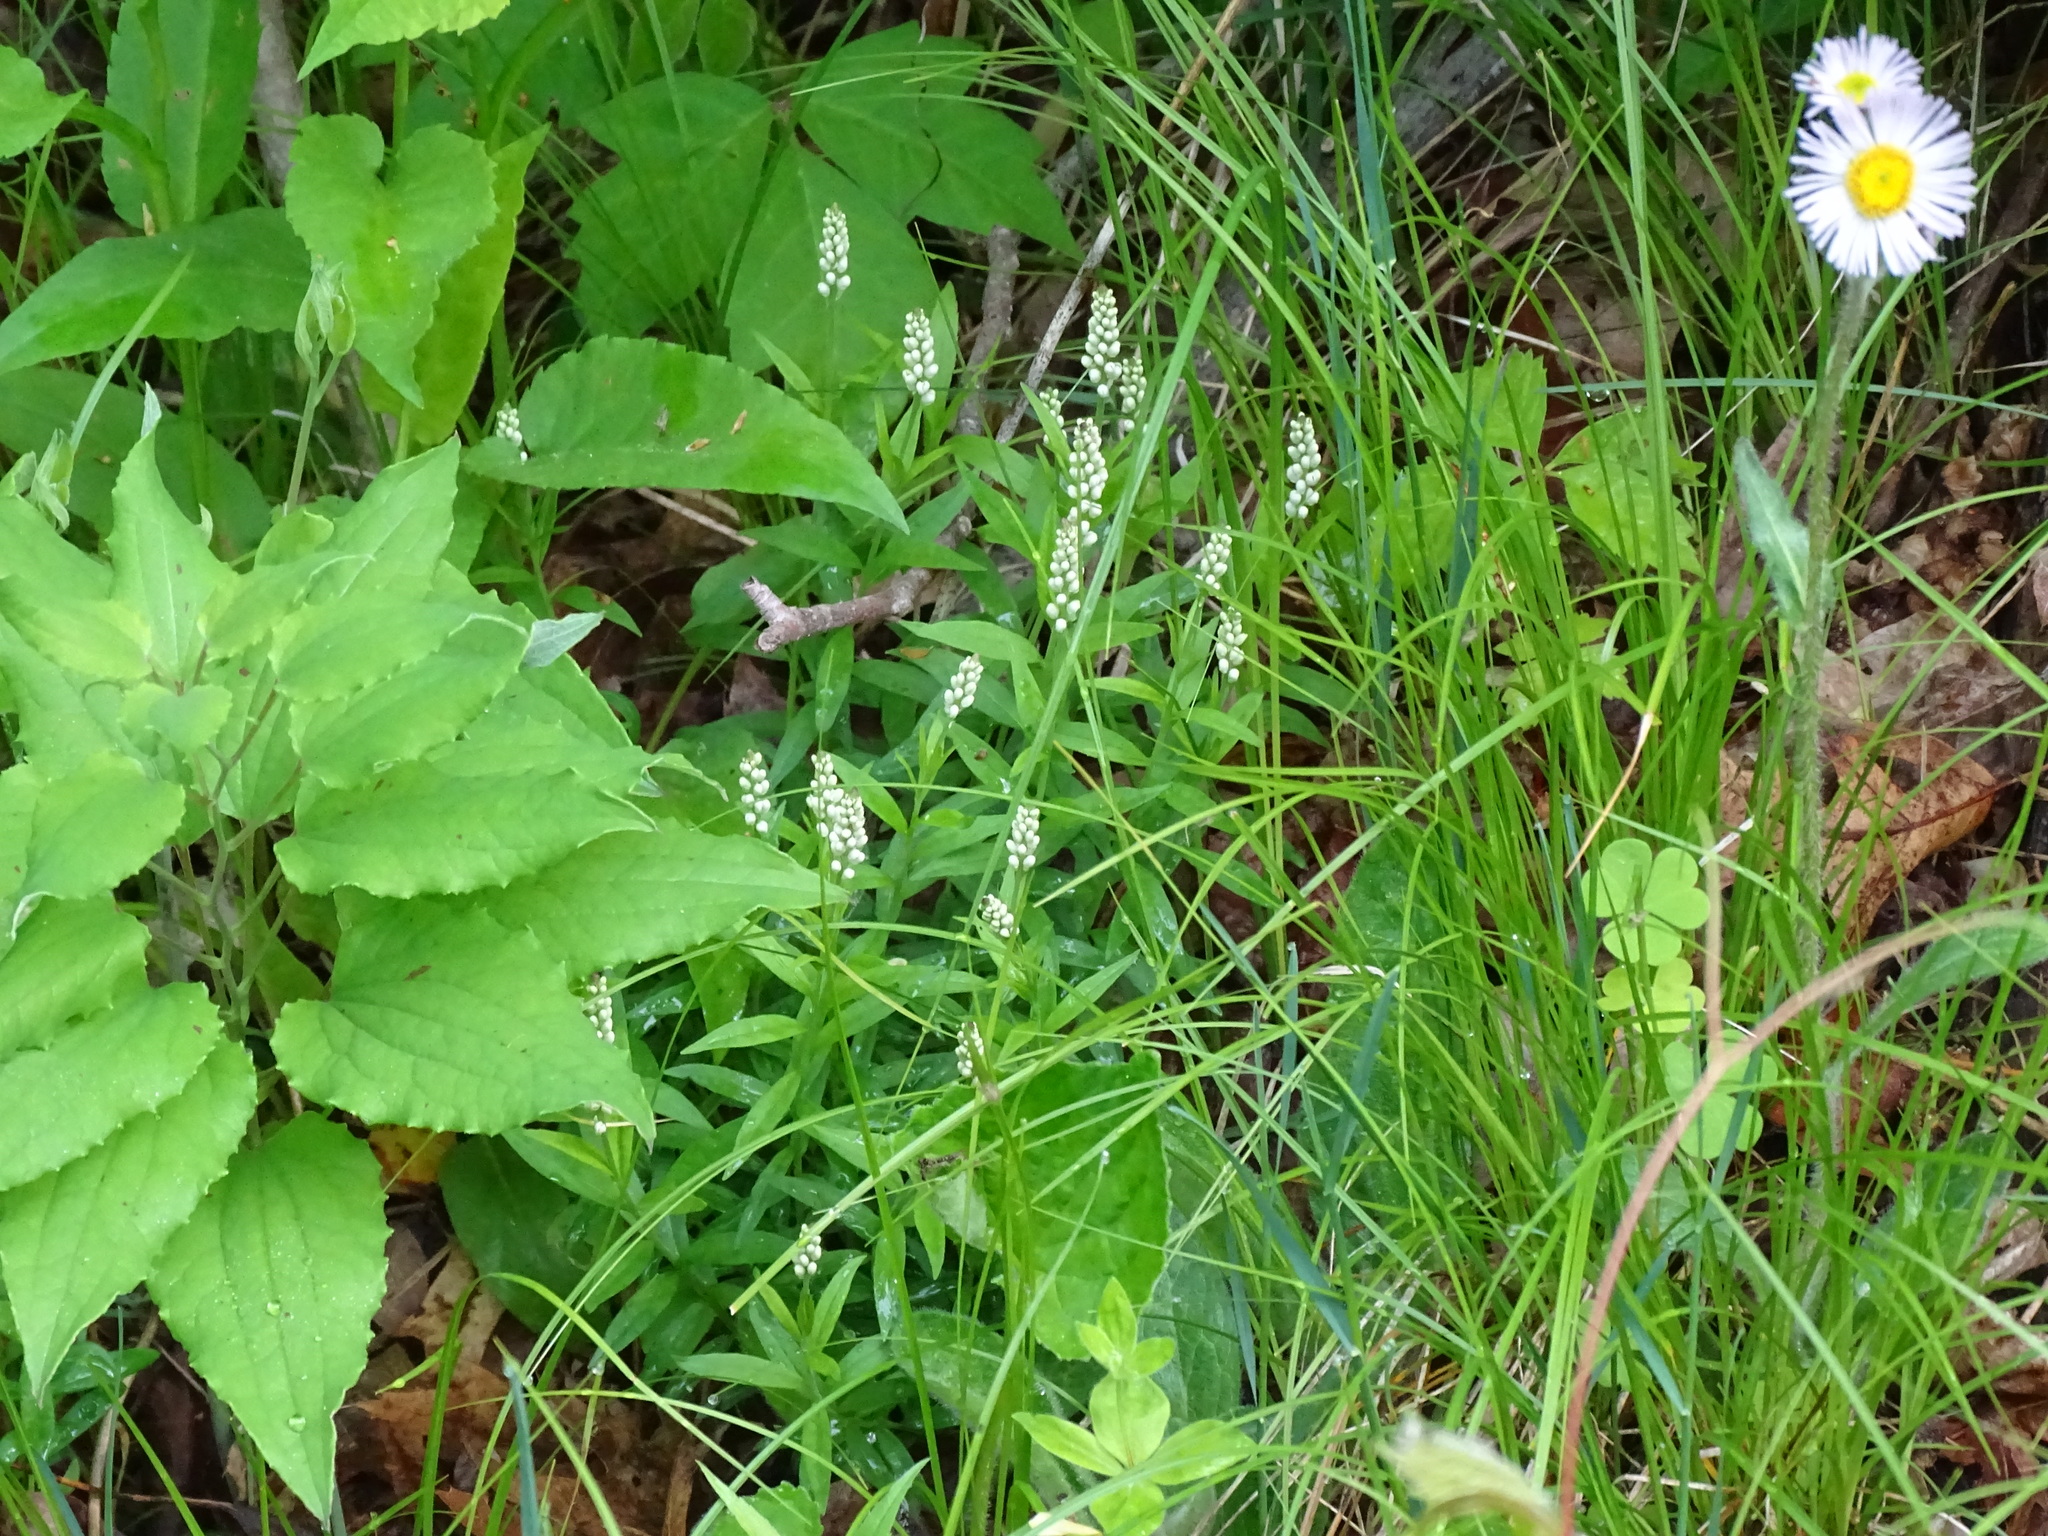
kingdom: Plantae
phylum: Tracheophyta
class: Magnoliopsida
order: Fabales
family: Polygalaceae
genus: Polygala
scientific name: Polygala senega
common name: Seneca snakeroot
